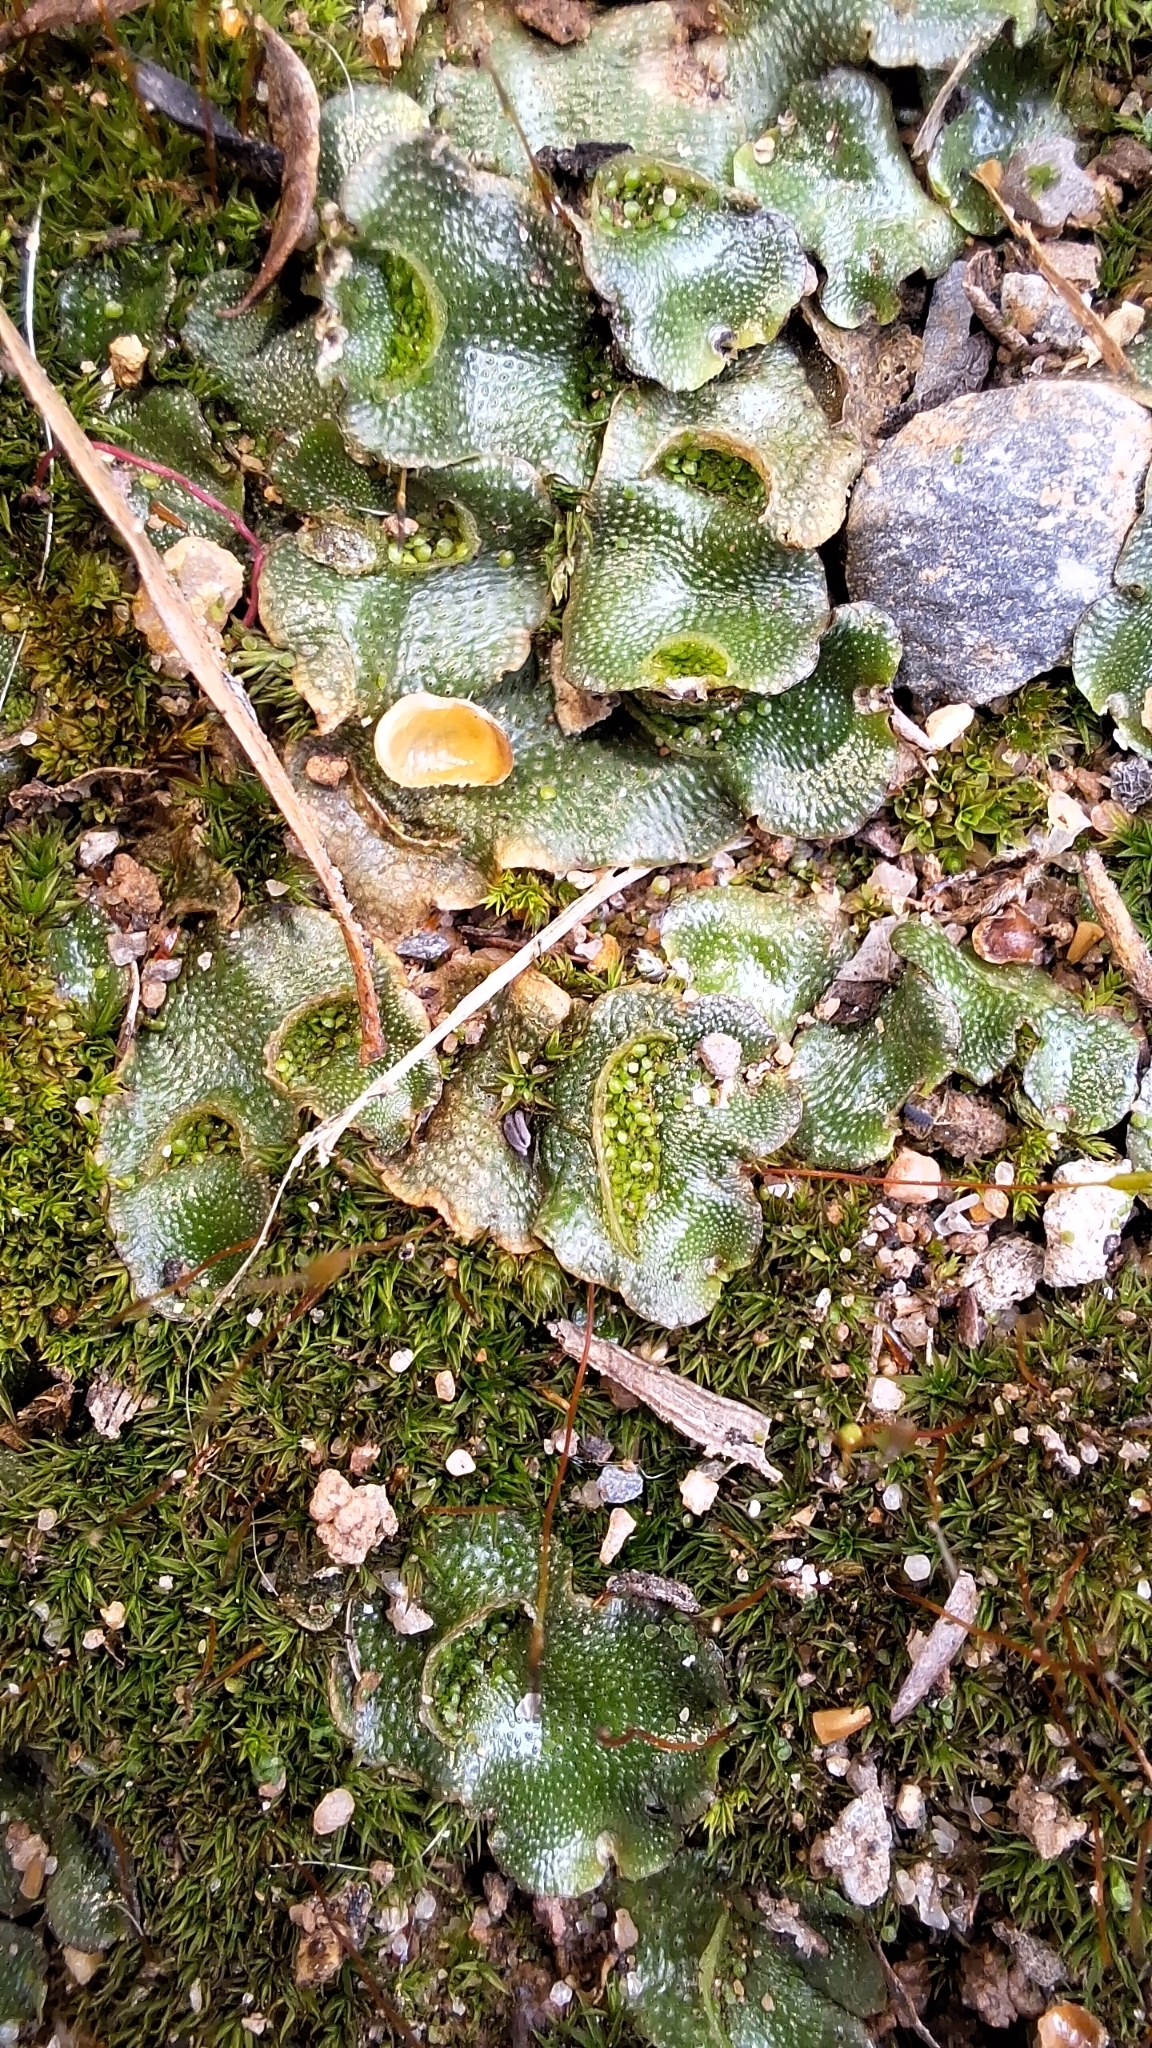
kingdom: Plantae
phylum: Marchantiophyta
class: Marchantiopsida
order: Lunulariales
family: Lunulariaceae
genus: Lunularia
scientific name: Lunularia cruciata
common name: Crescent-cup liverwort
